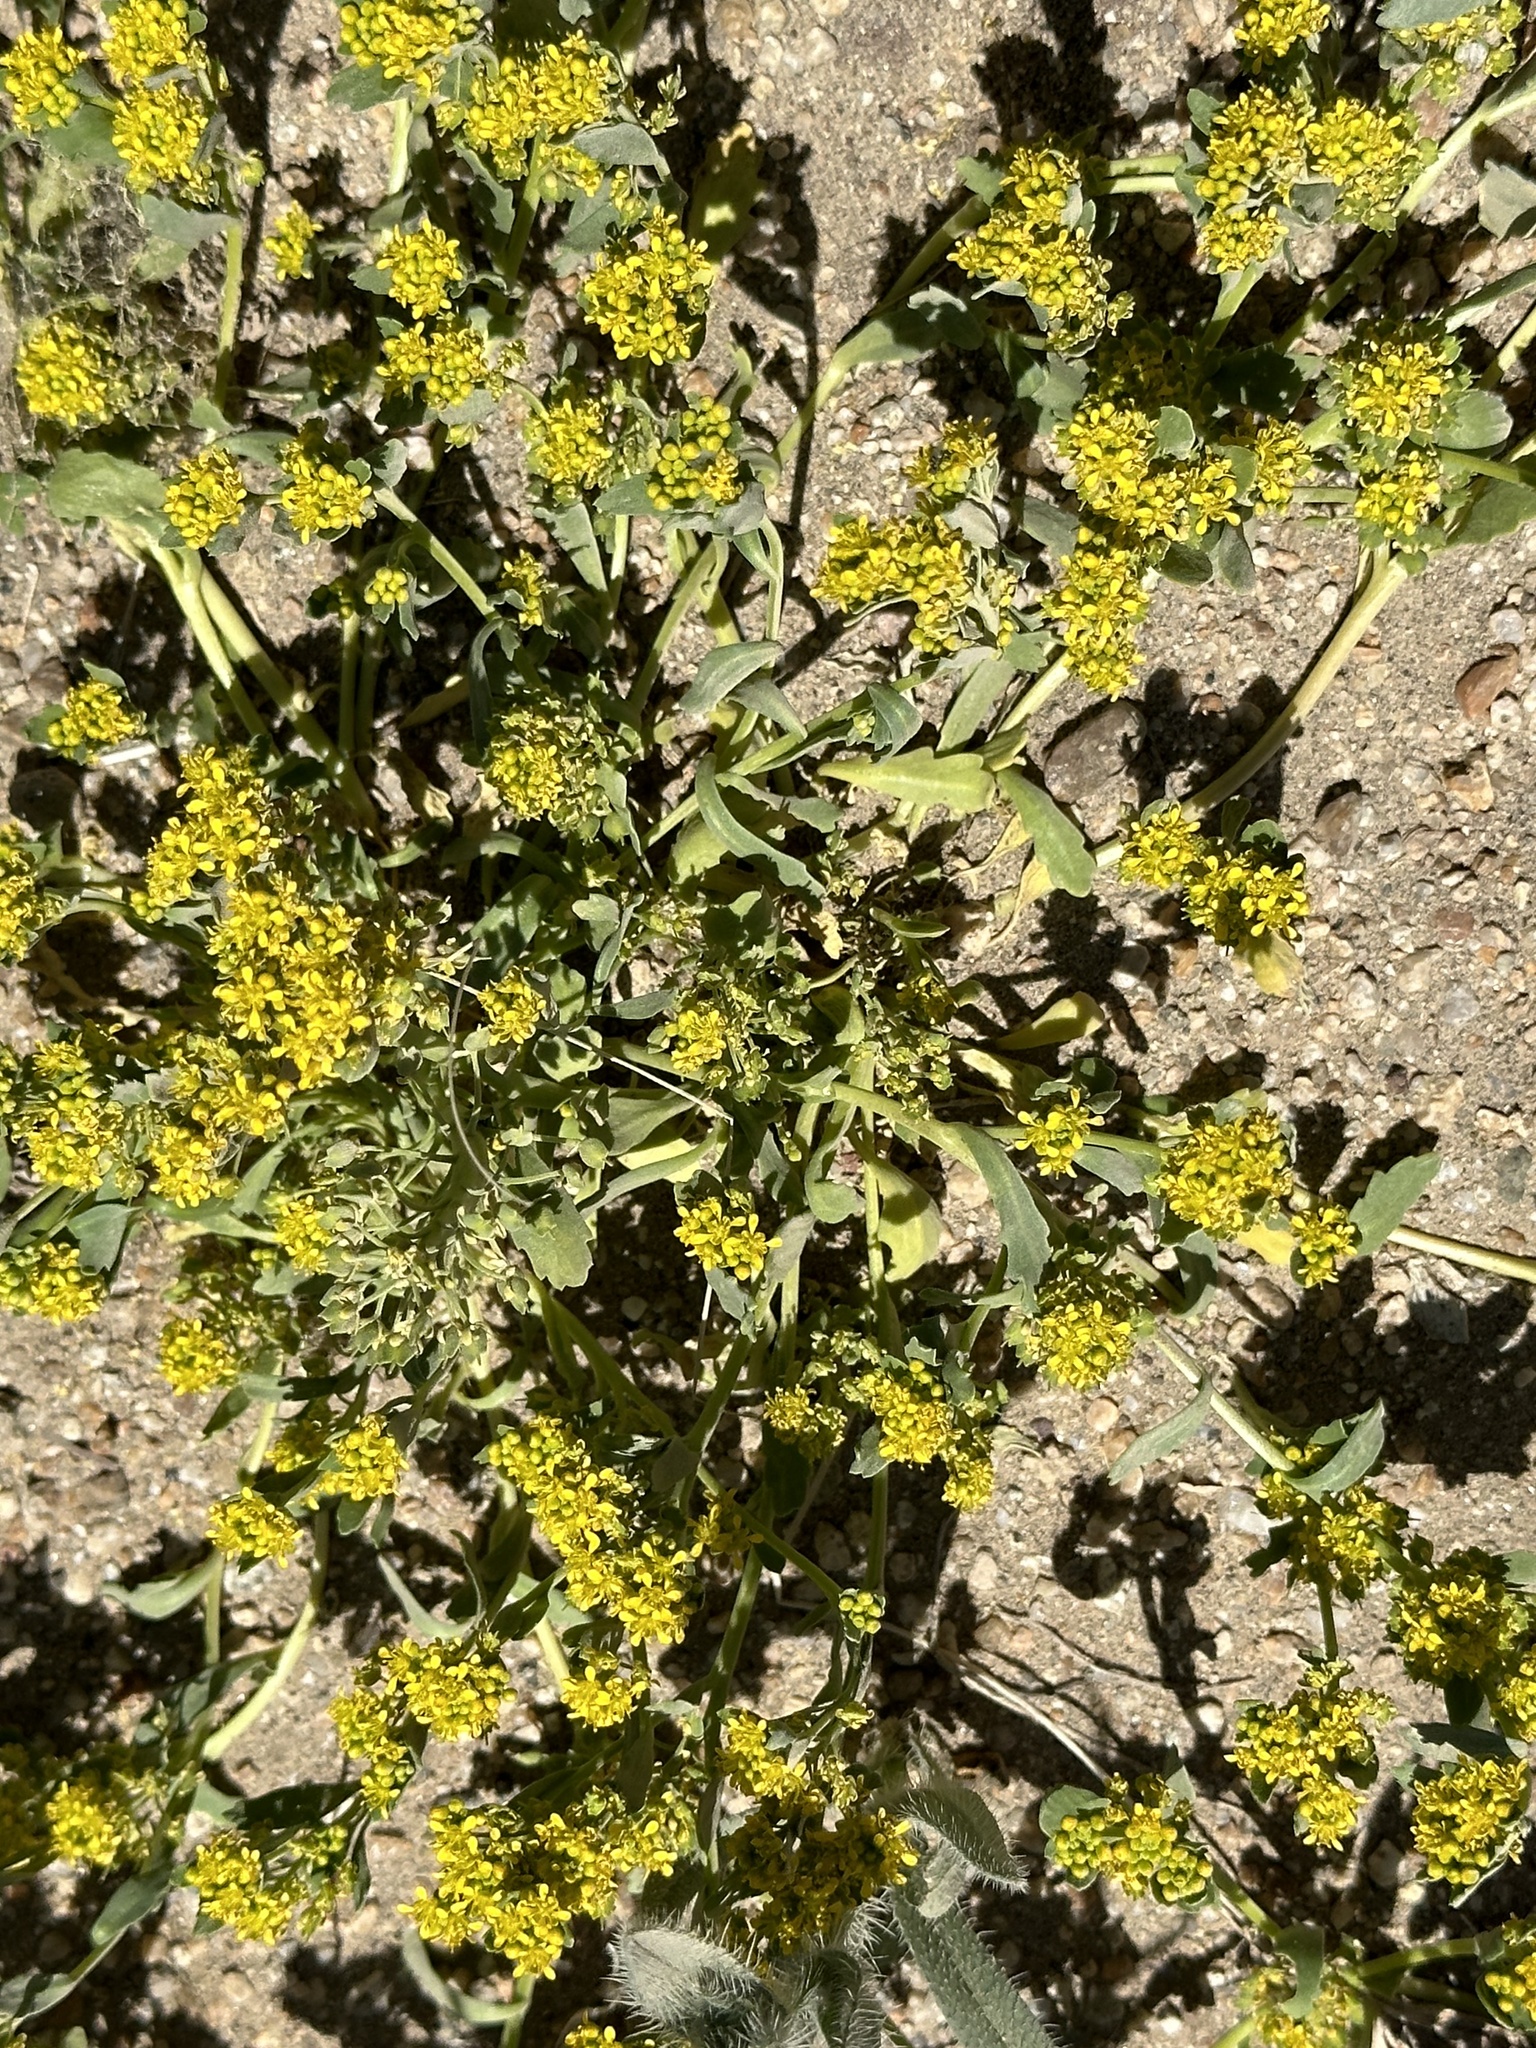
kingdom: Plantae
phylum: Tracheophyta
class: Magnoliopsida
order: Brassicales
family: Brassicaceae
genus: Lepidium
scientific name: Lepidium flavum
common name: Yellow pepperwort
